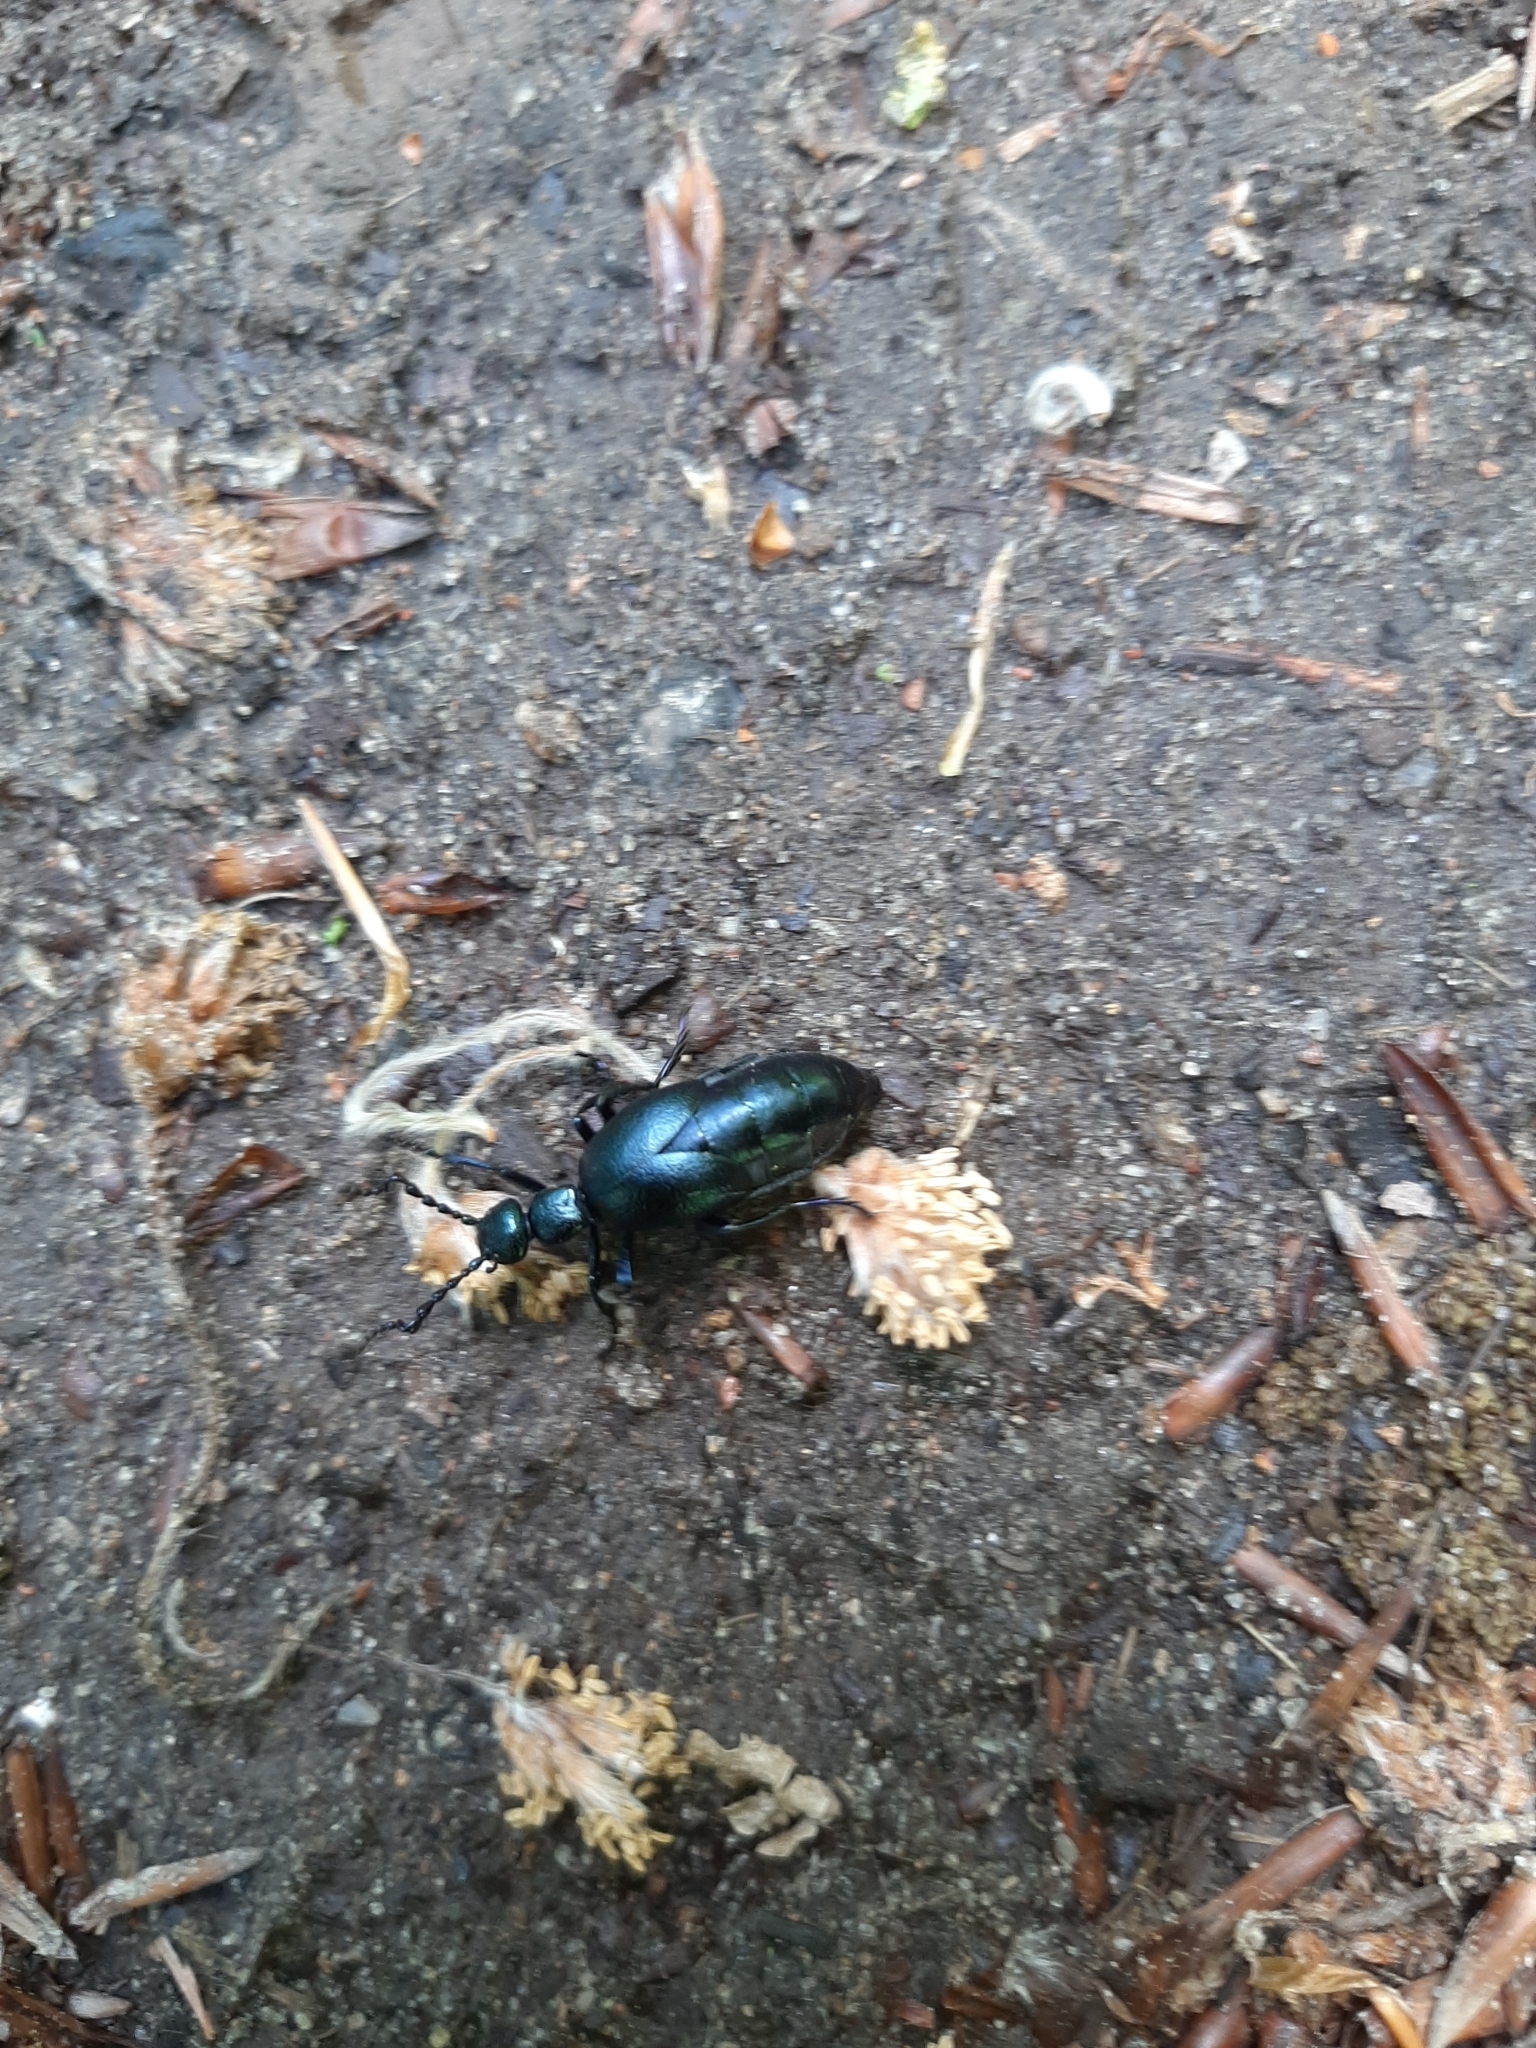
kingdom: Animalia
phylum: Arthropoda
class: Insecta
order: Coleoptera
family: Meloidae
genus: Meloe
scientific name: Meloe violaceus
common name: Violet oil-beetle
